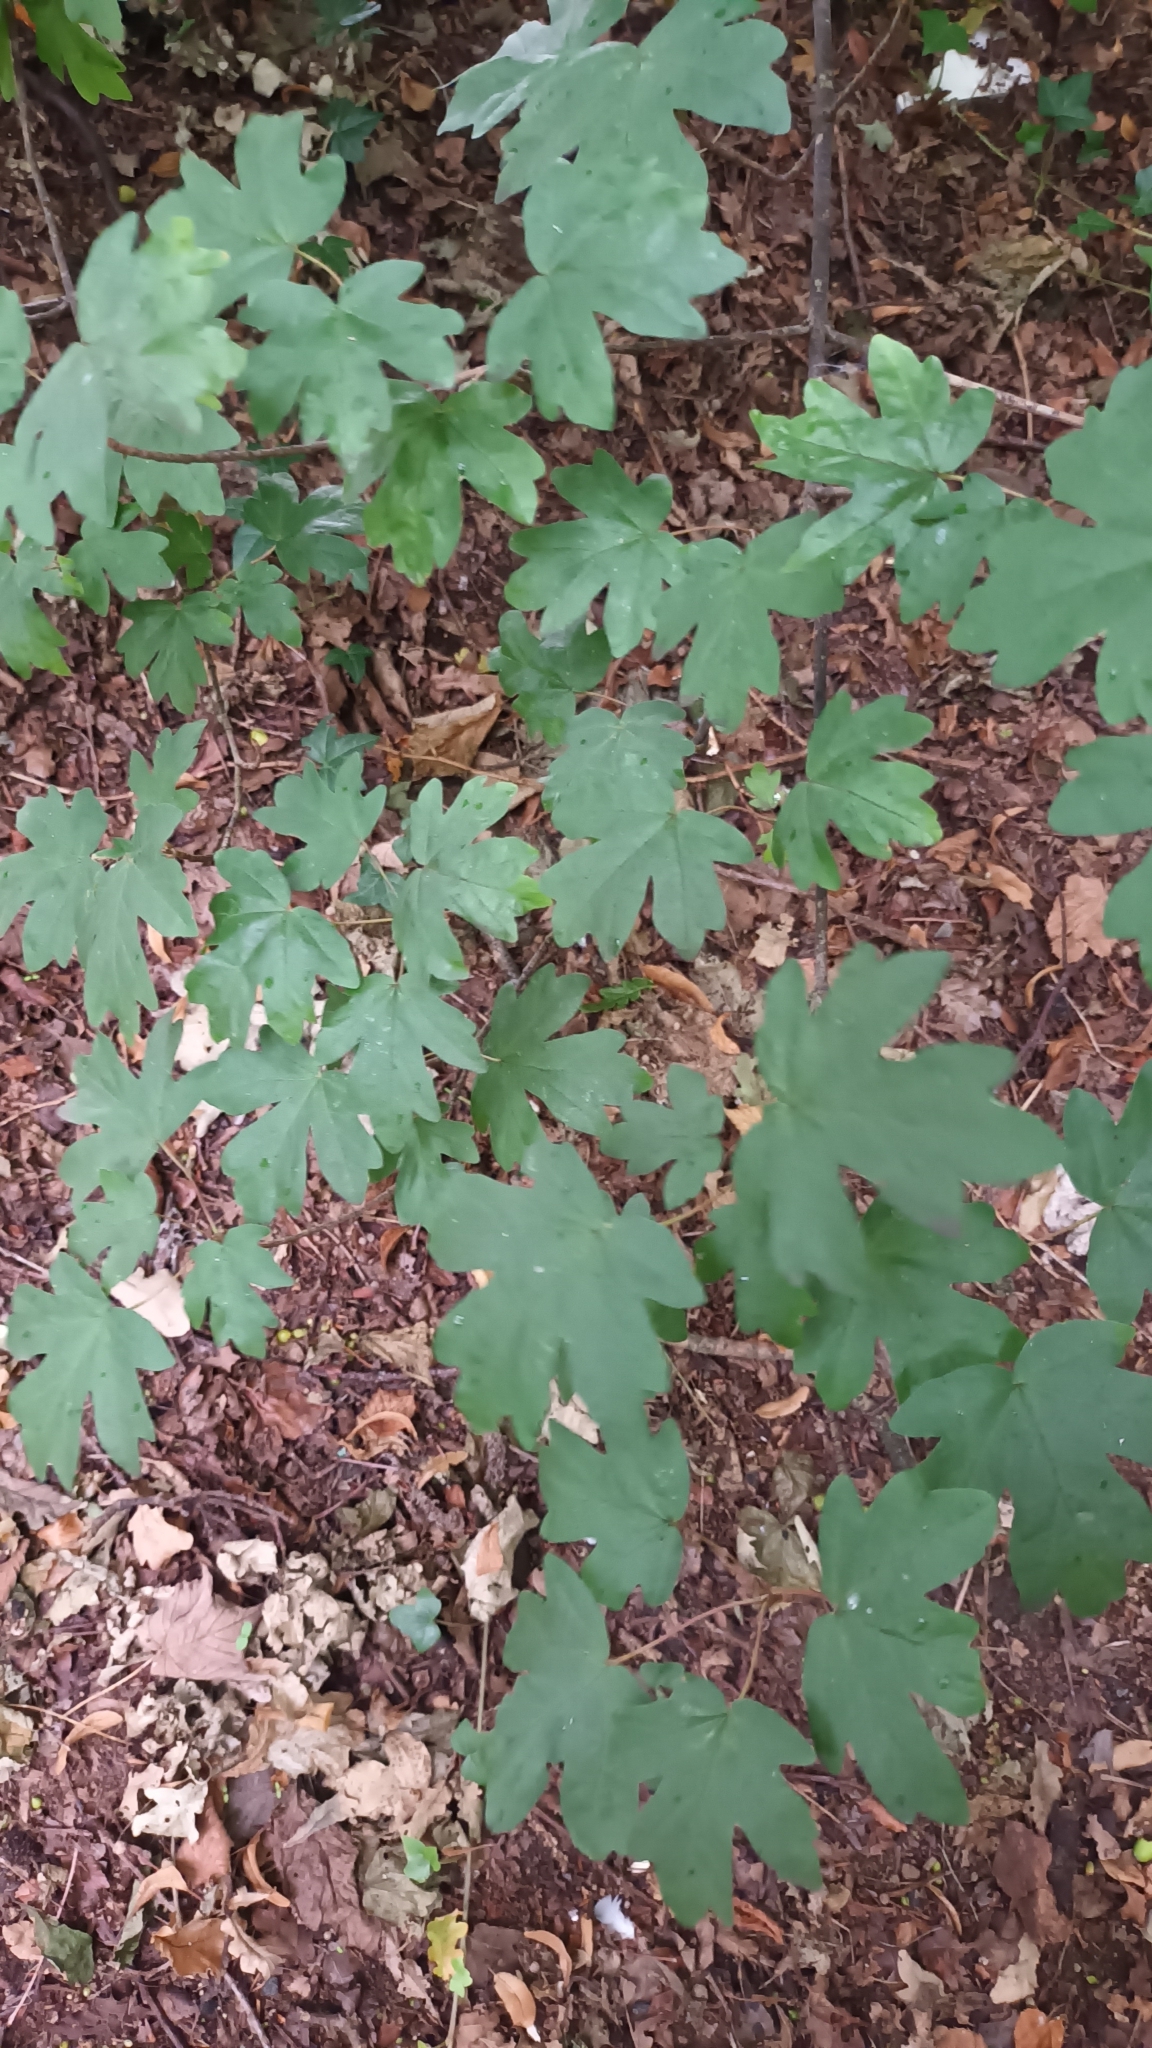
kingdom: Plantae
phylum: Tracheophyta
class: Magnoliopsida
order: Sapindales
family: Sapindaceae
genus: Acer
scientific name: Acer campestre
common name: Field maple
